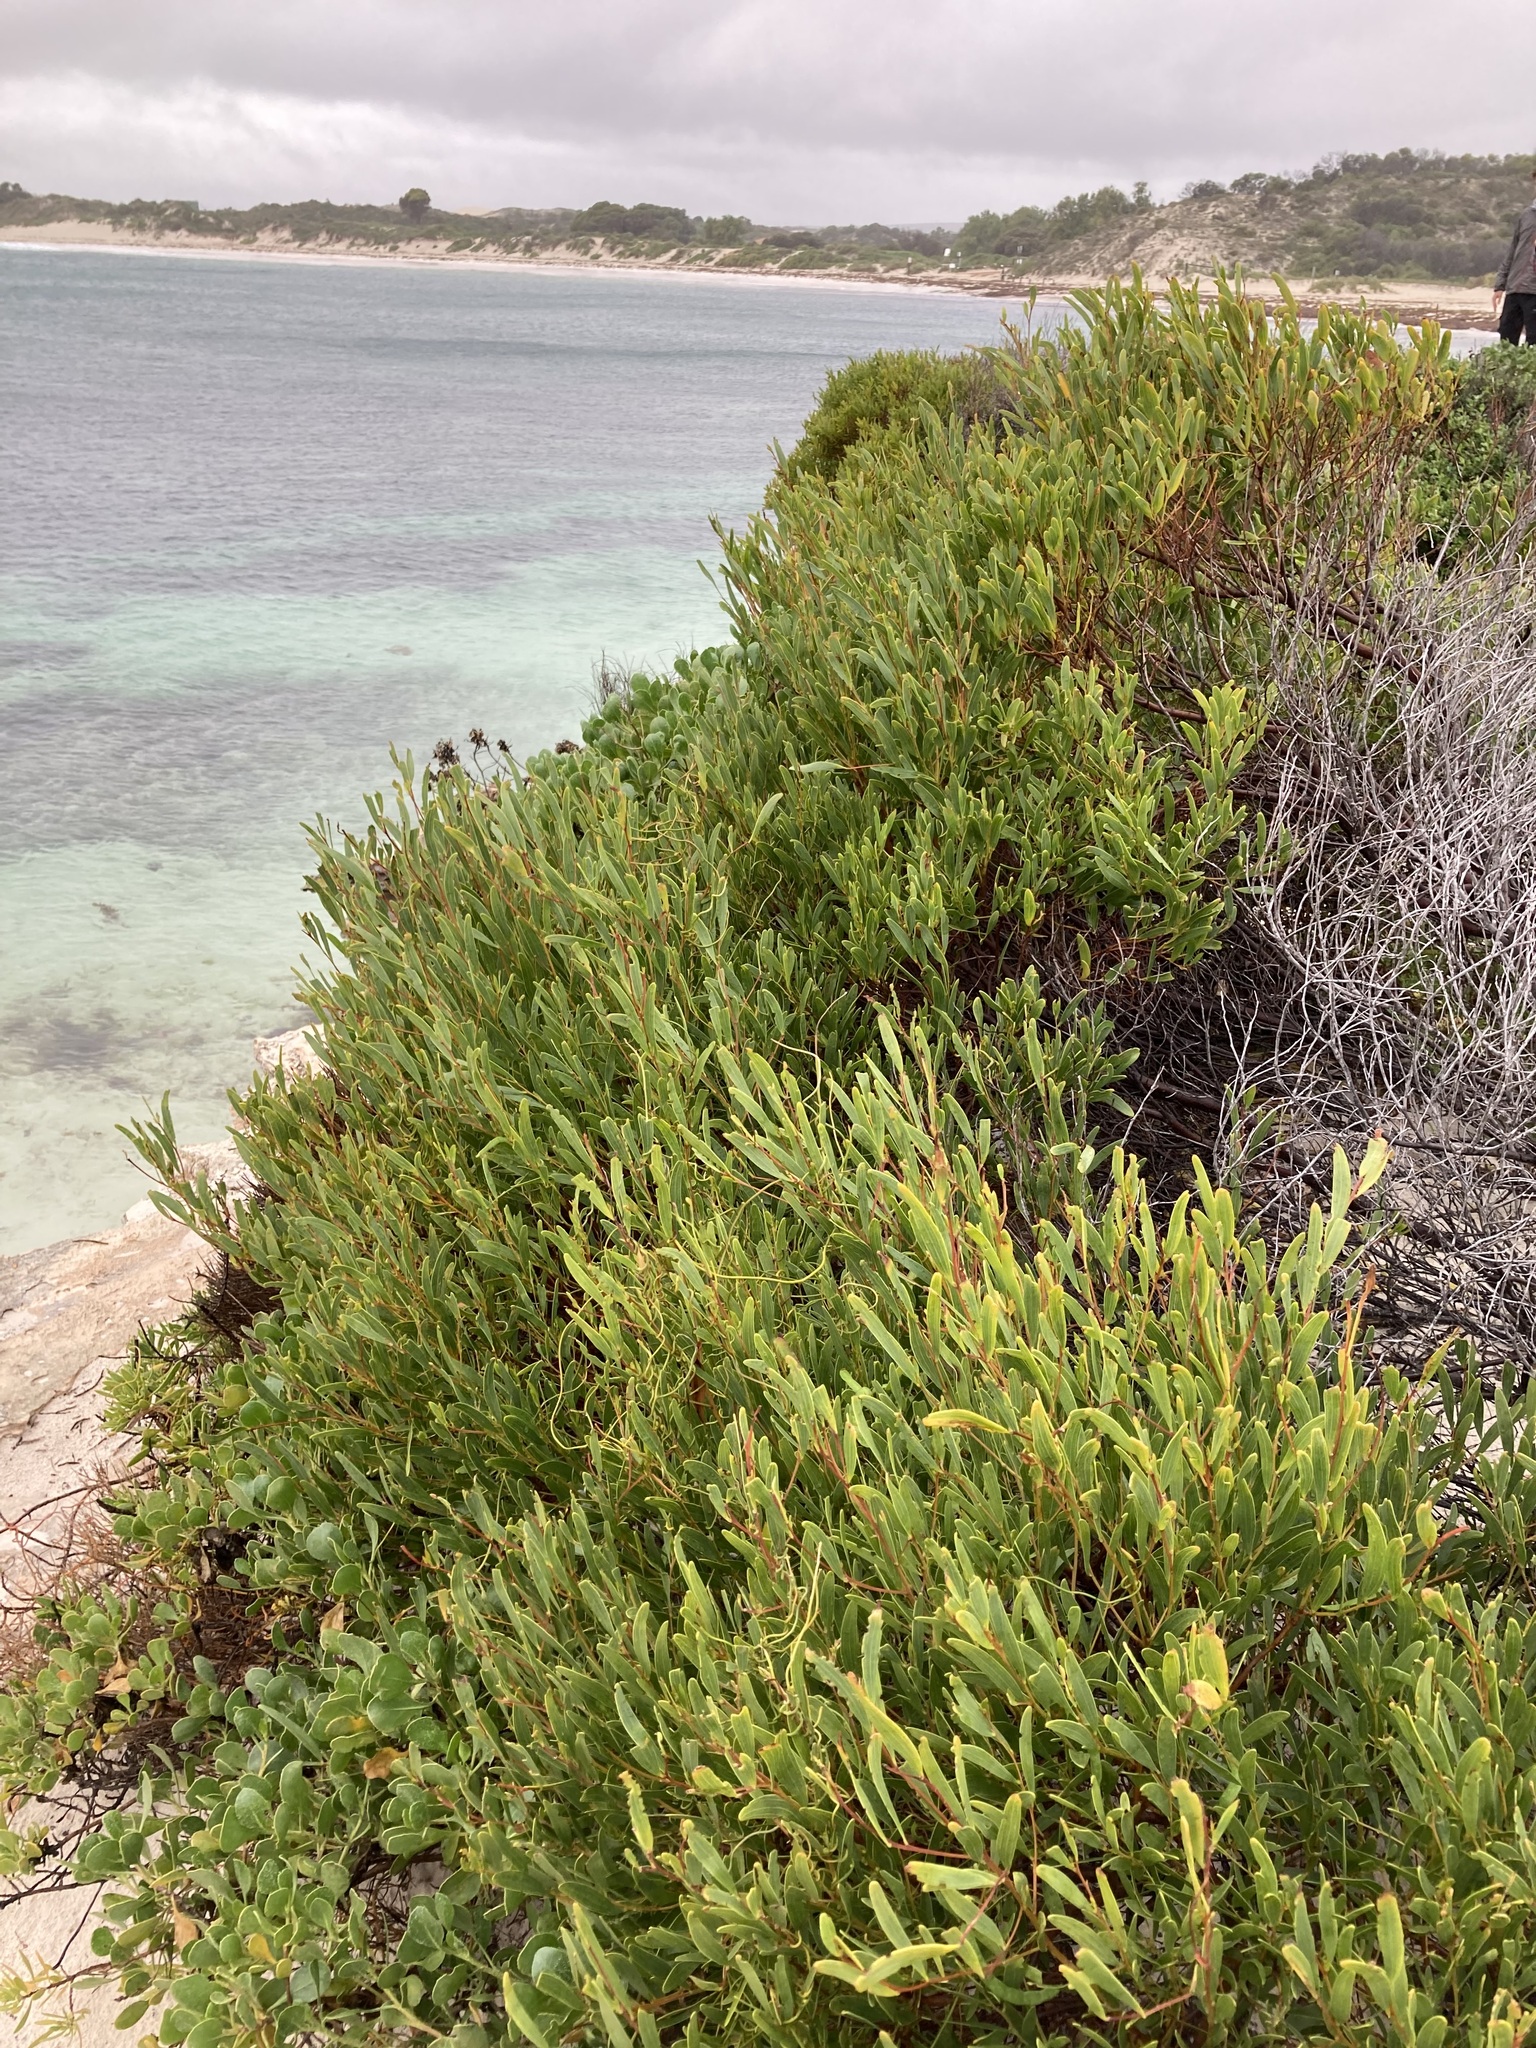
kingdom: Plantae
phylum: Tracheophyta
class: Magnoliopsida
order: Fabales
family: Fabaceae
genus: Acacia
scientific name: Acacia cyclops
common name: Coastal wattle
